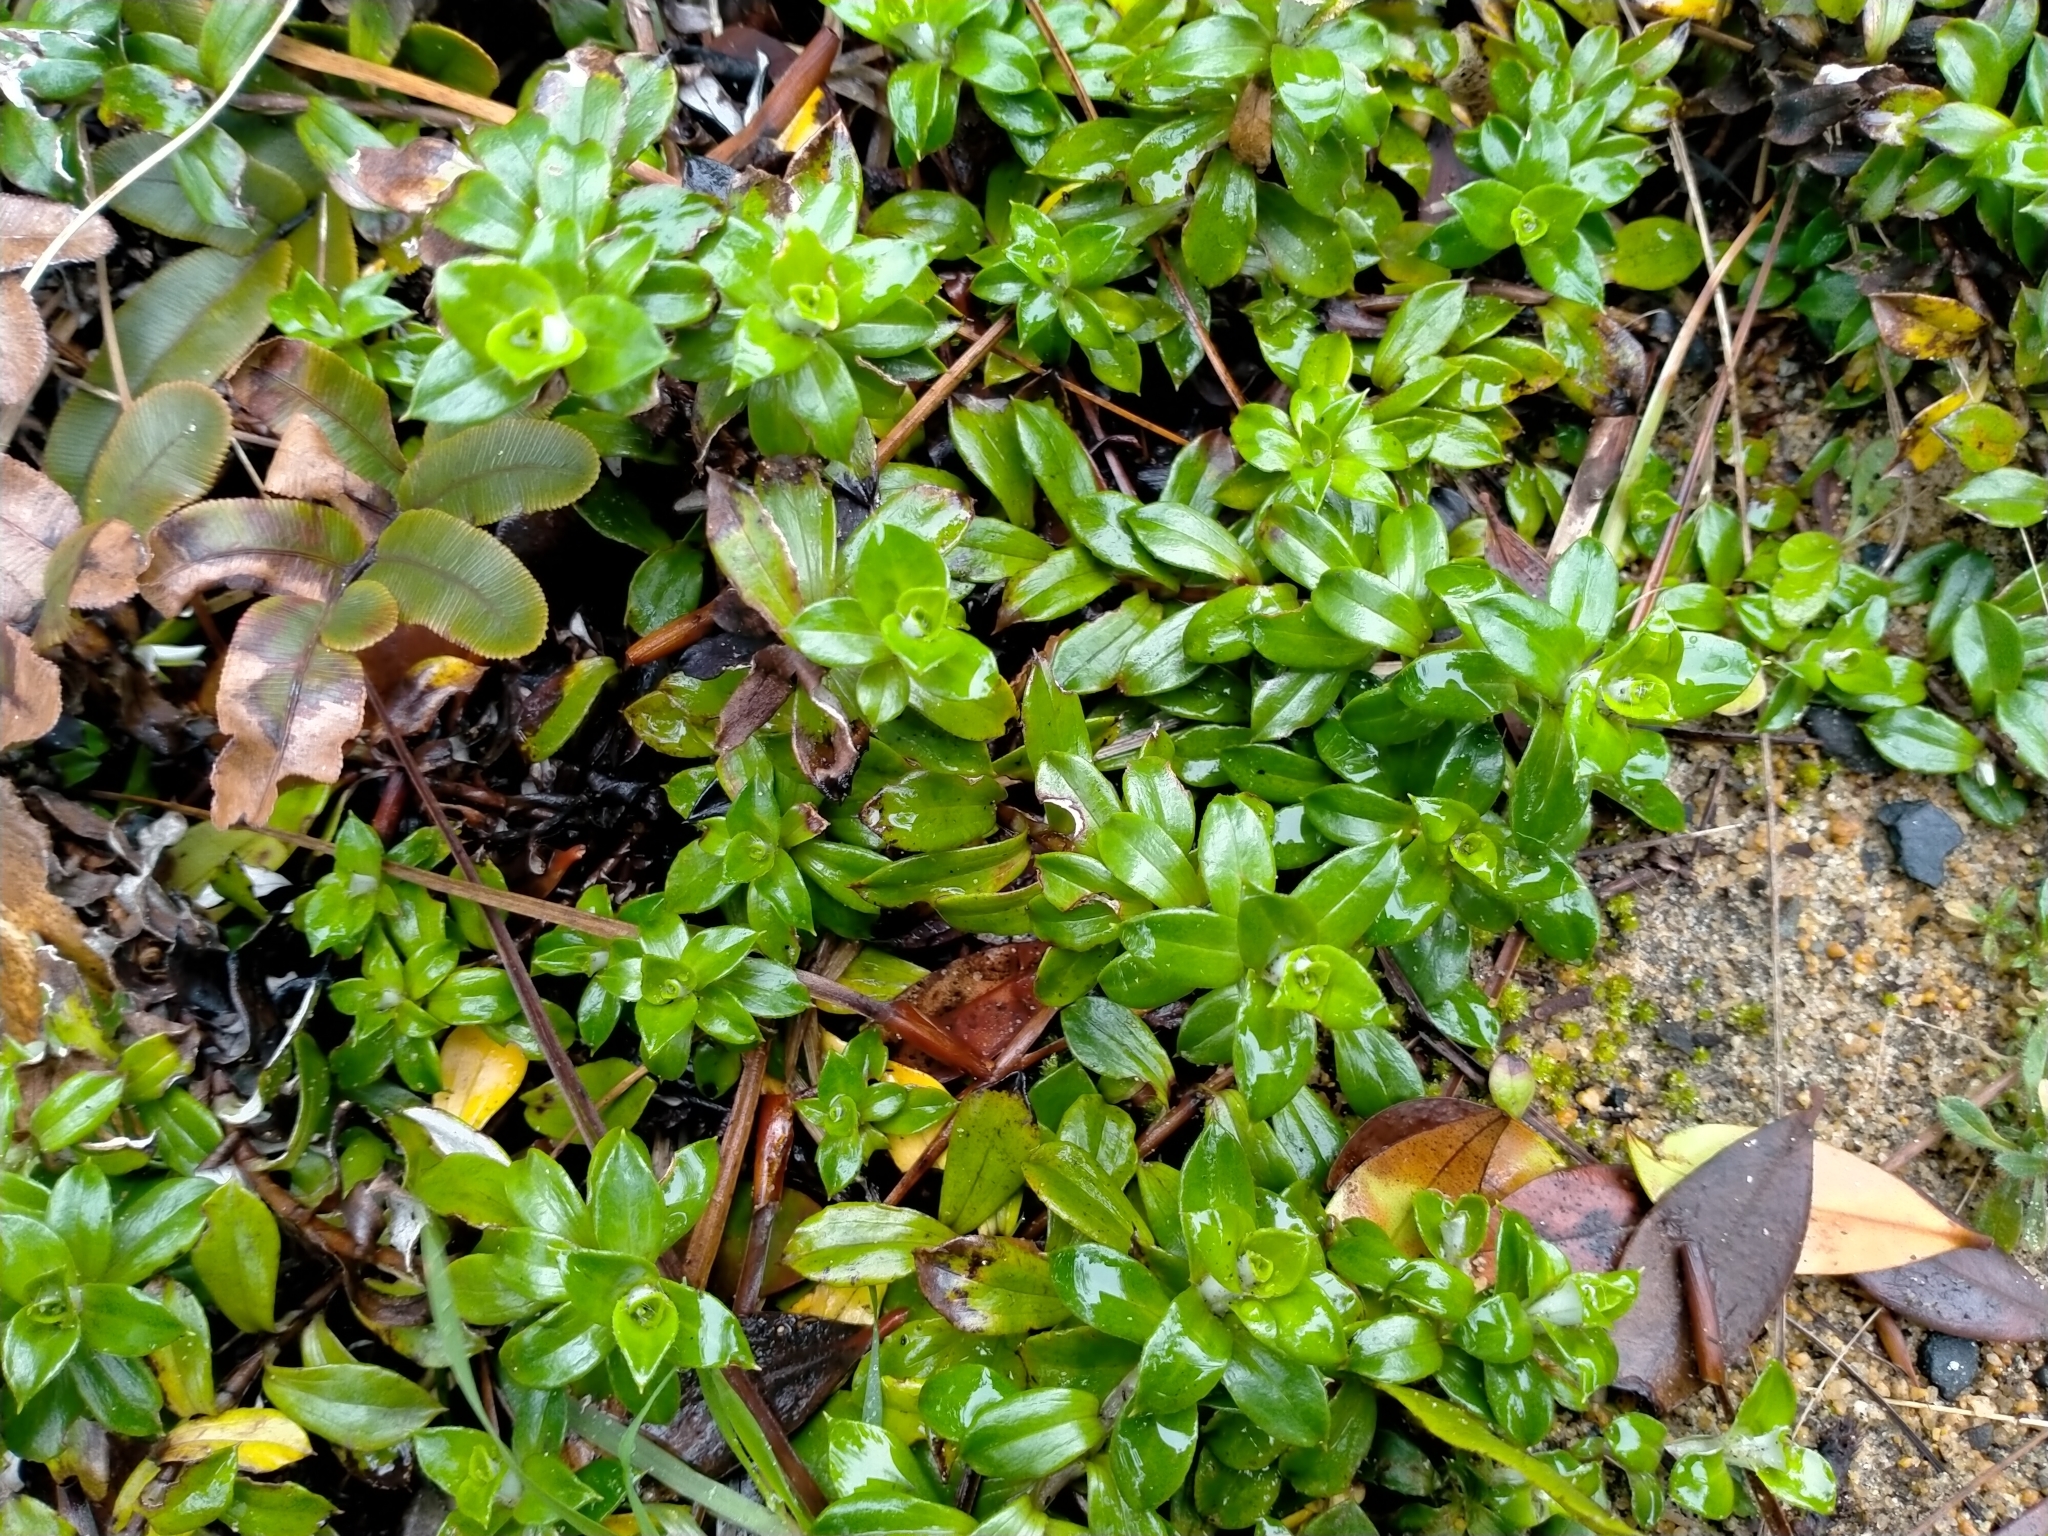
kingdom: Plantae
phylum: Tracheophyta
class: Magnoliopsida
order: Asterales
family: Asteraceae
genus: Anaphalioides
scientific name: Anaphalioides hookeri
